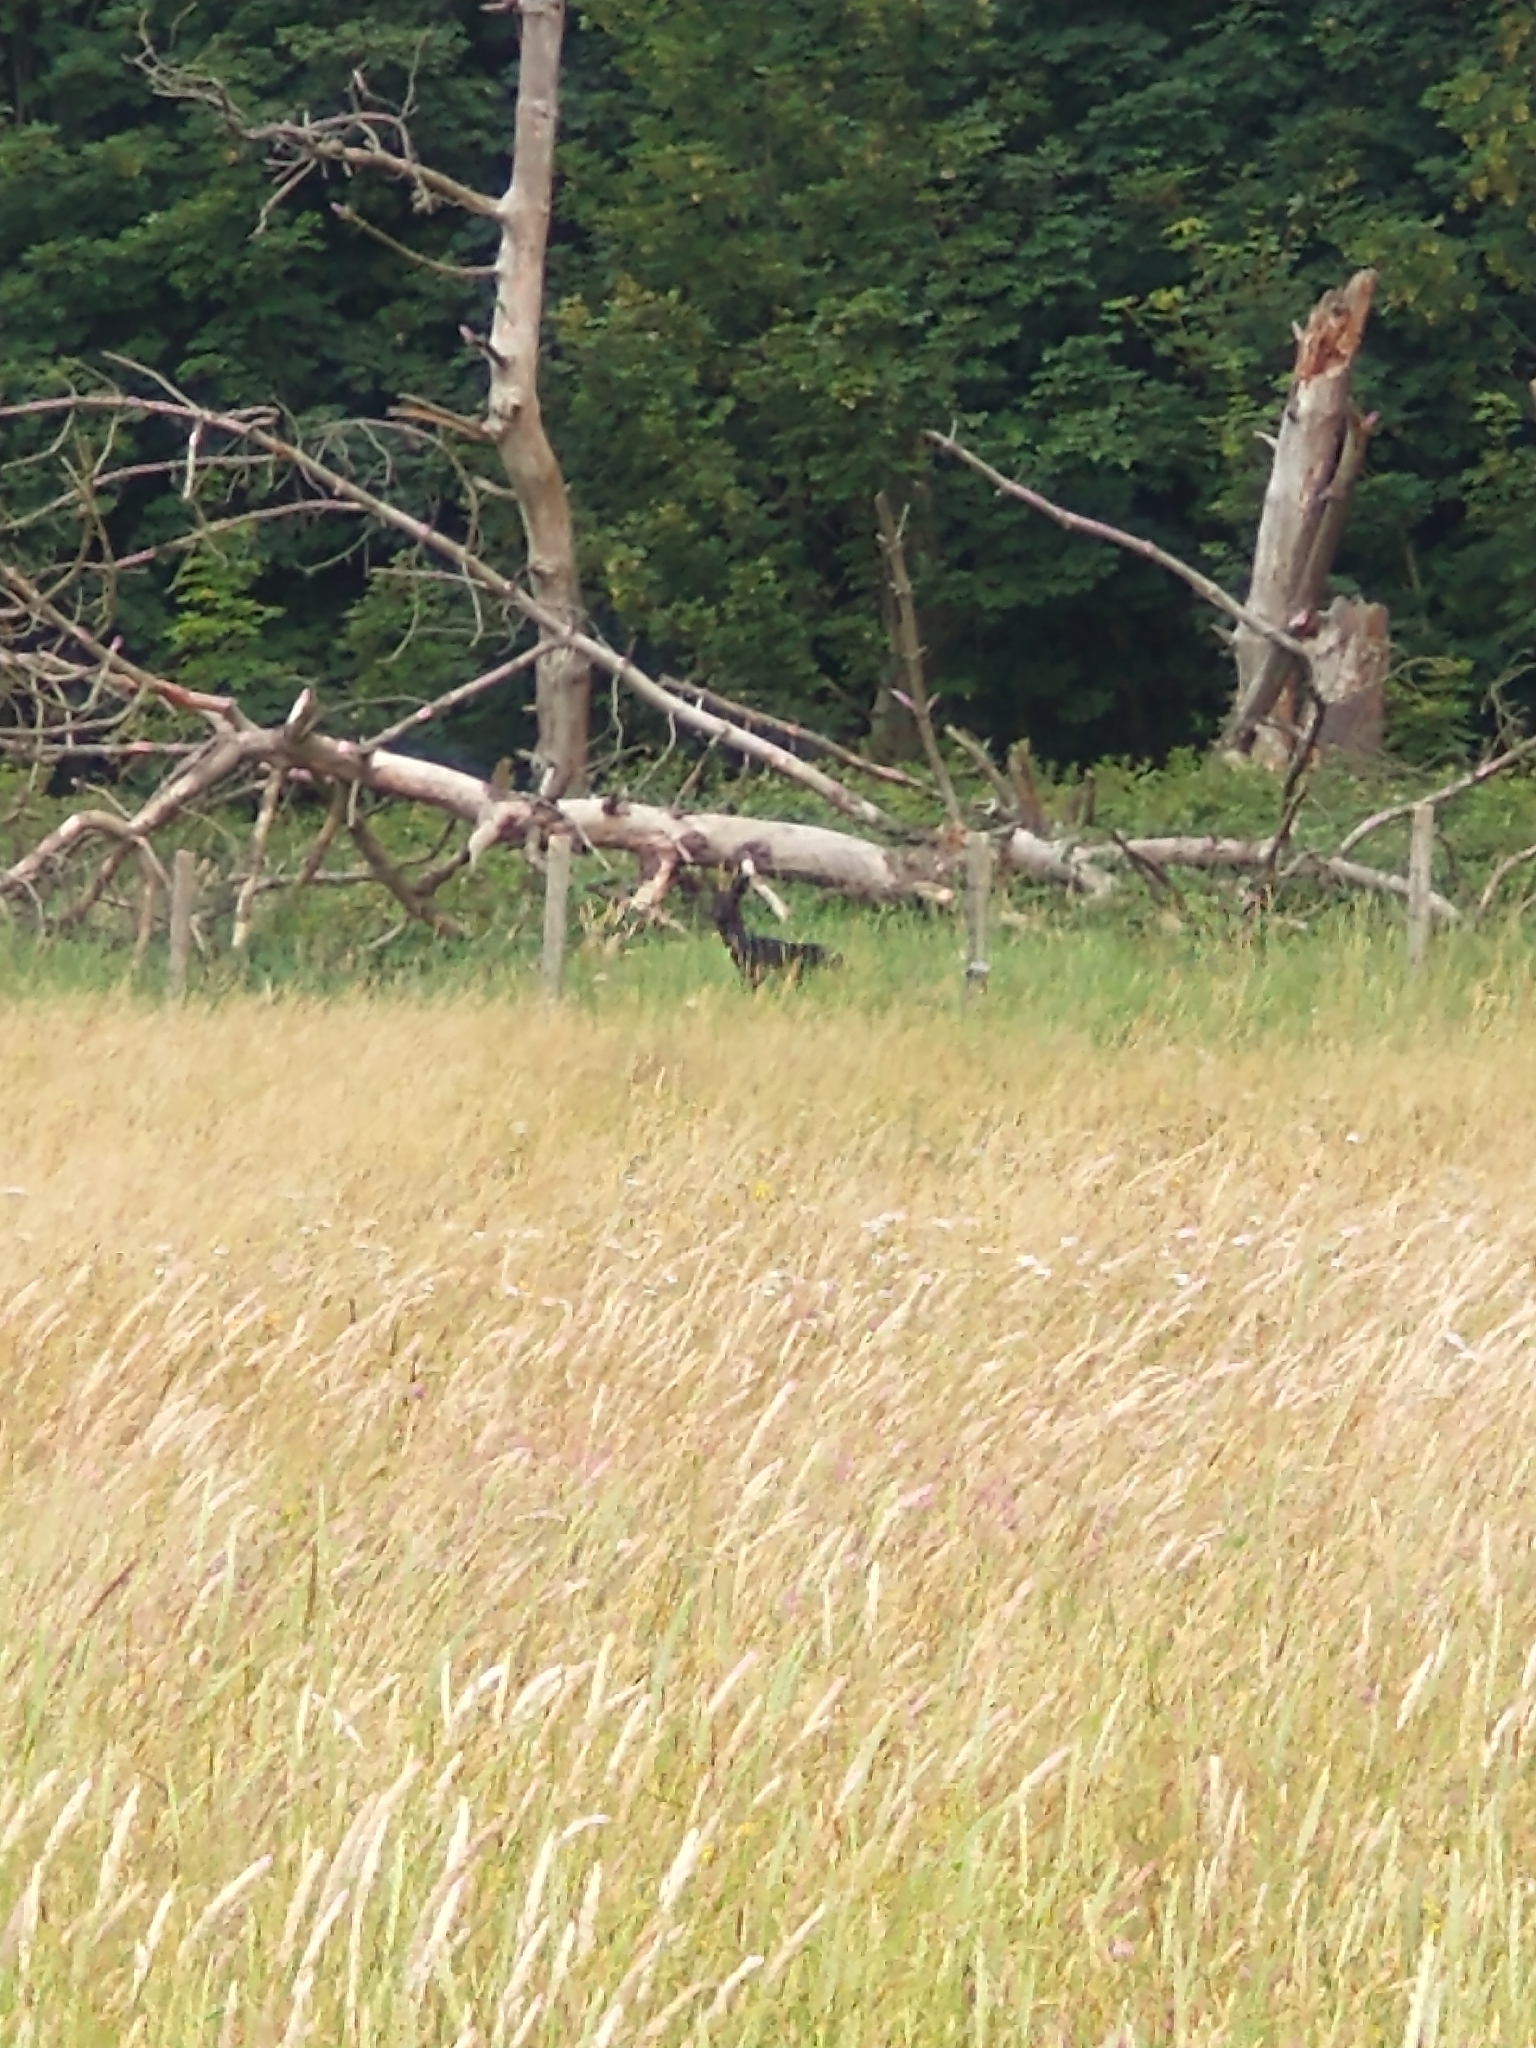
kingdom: Animalia
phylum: Chordata
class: Mammalia
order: Artiodactyla
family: Cervidae
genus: Capreolus
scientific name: Capreolus capreolus
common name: Western roe deer
